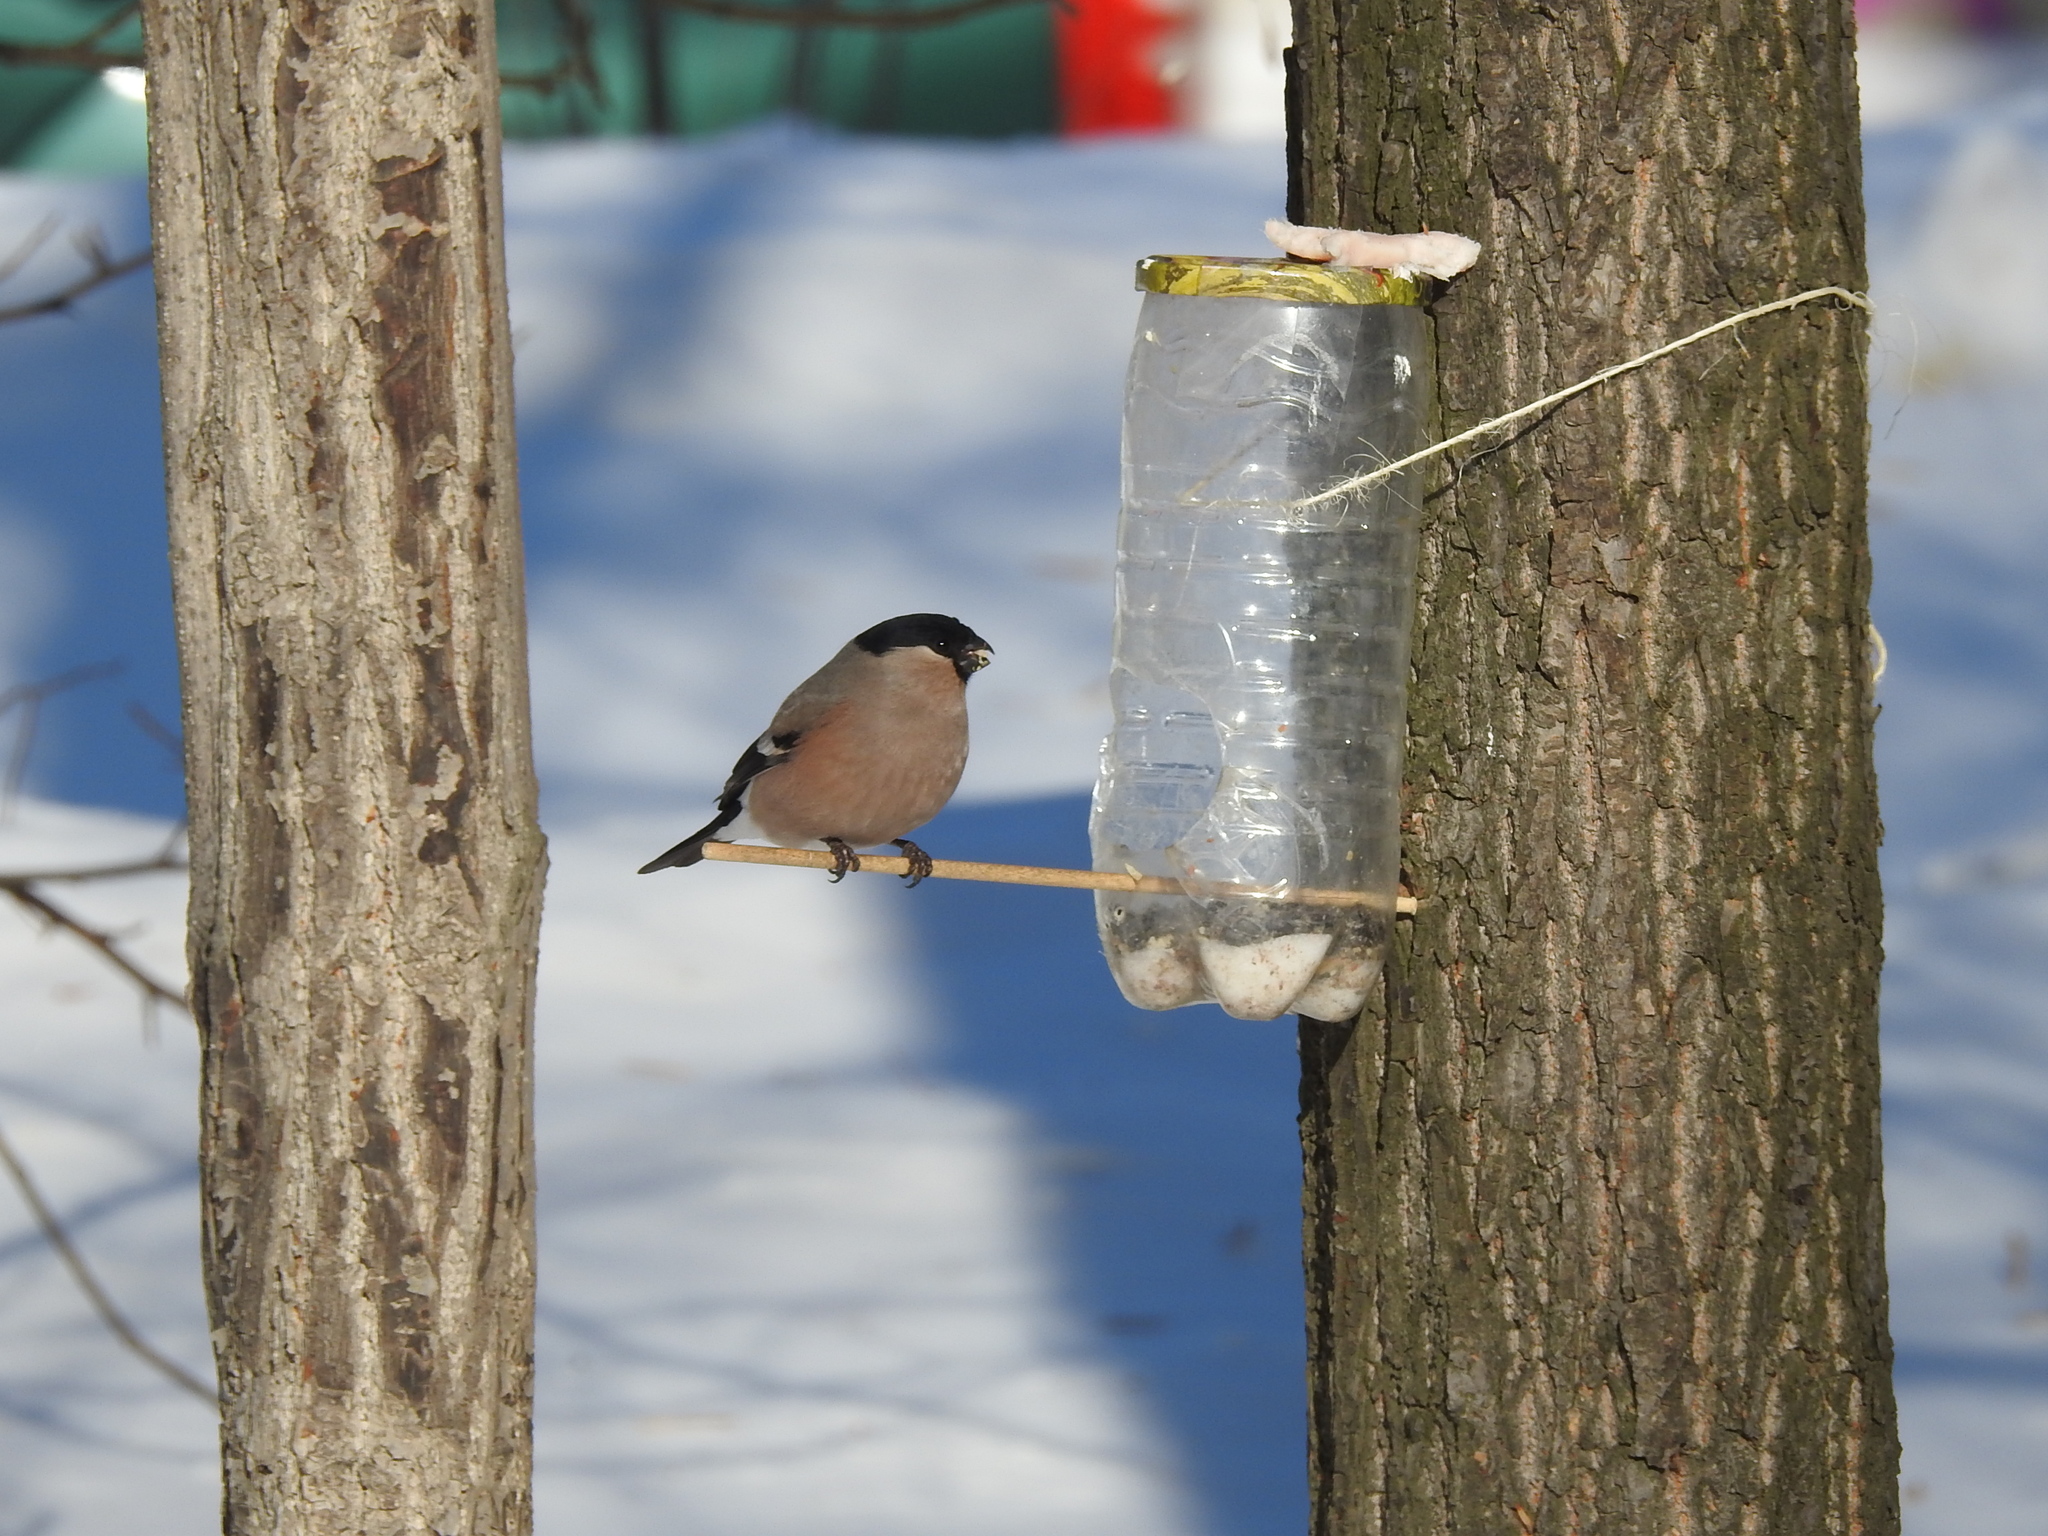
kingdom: Animalia
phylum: Chordata
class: Aves
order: Passeriformes
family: Fringillidae
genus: Pyrrhula
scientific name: Pyrrhula pyrrhula
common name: Eurasian bullfinch
